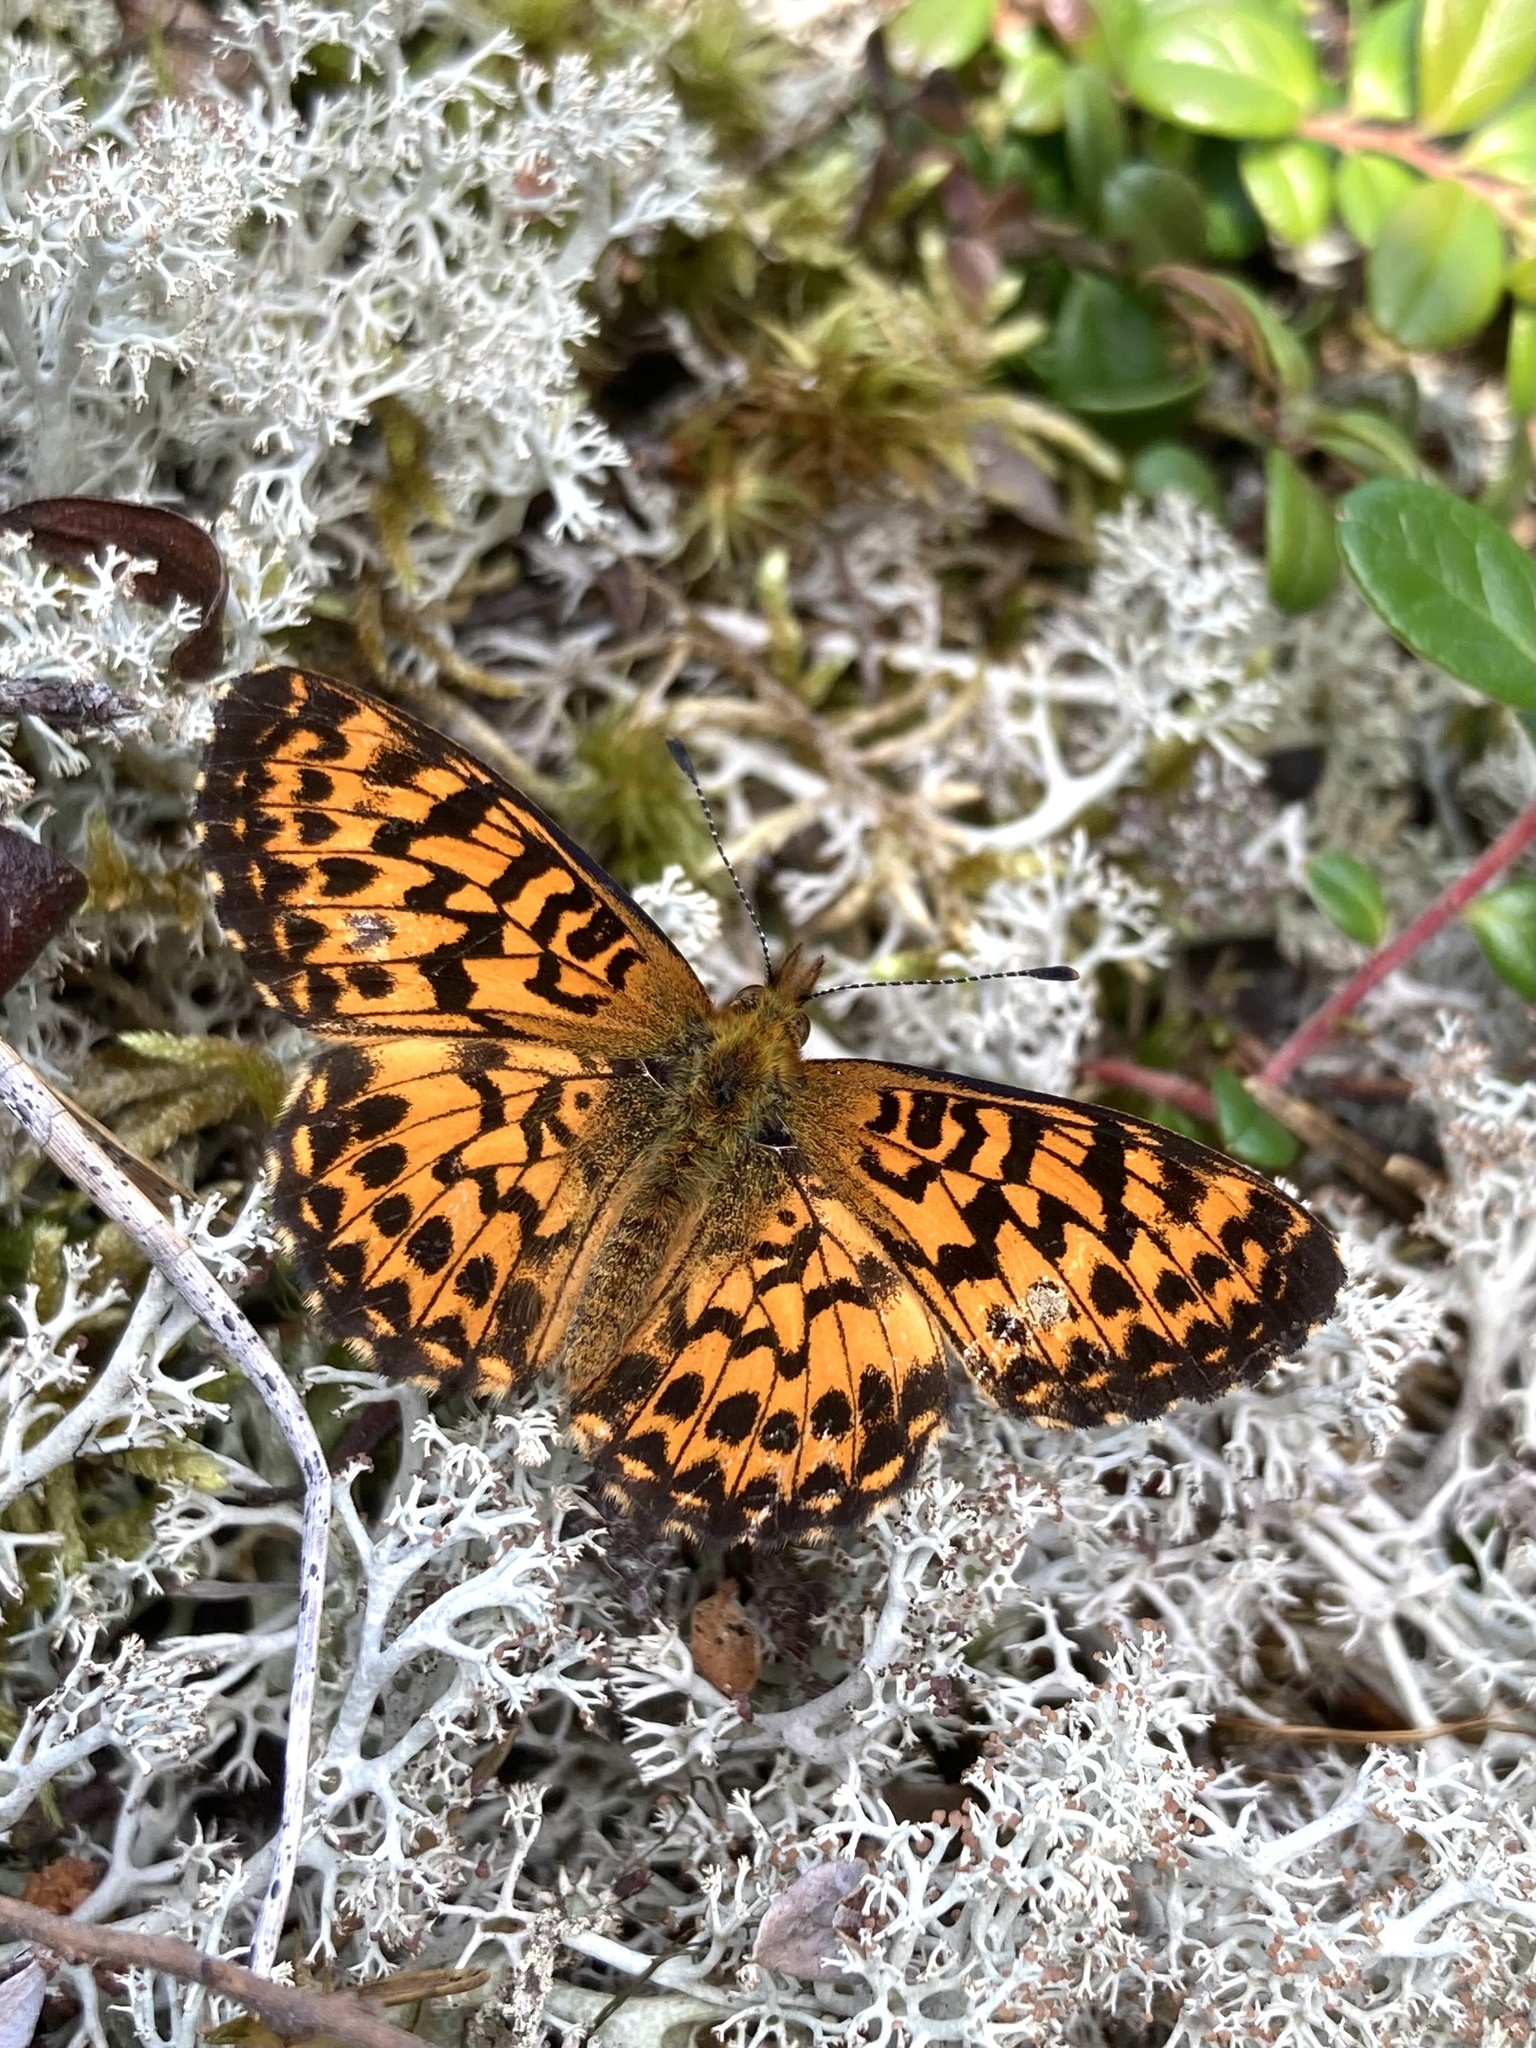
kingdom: Animalia
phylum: Arthropoda
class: Insecta
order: Lepidoptera
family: Nymphalidae
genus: Boloria
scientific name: Boloria chariclea
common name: Arctic fritillary
